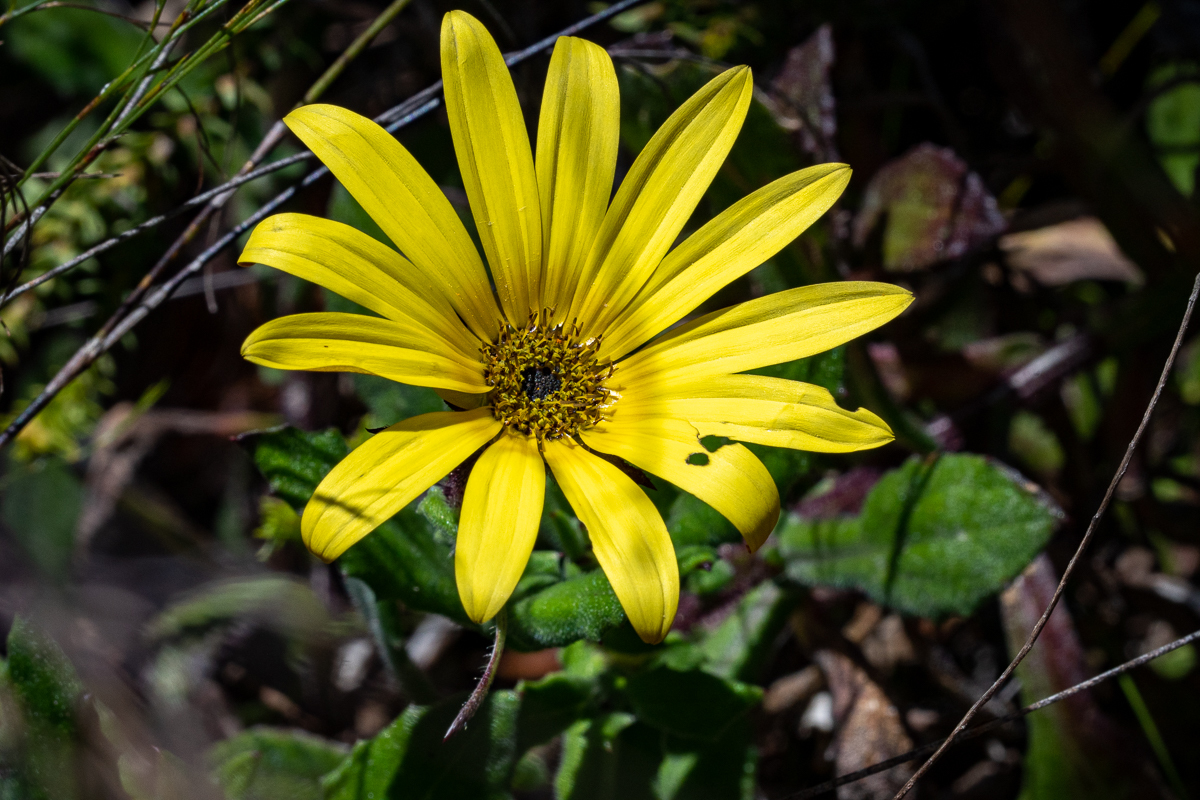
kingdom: Plantae
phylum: Tracheophyta
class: Magnoliopsida
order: Asterales
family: Asteraceae
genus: Arctotis
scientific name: Arctotis scabra
